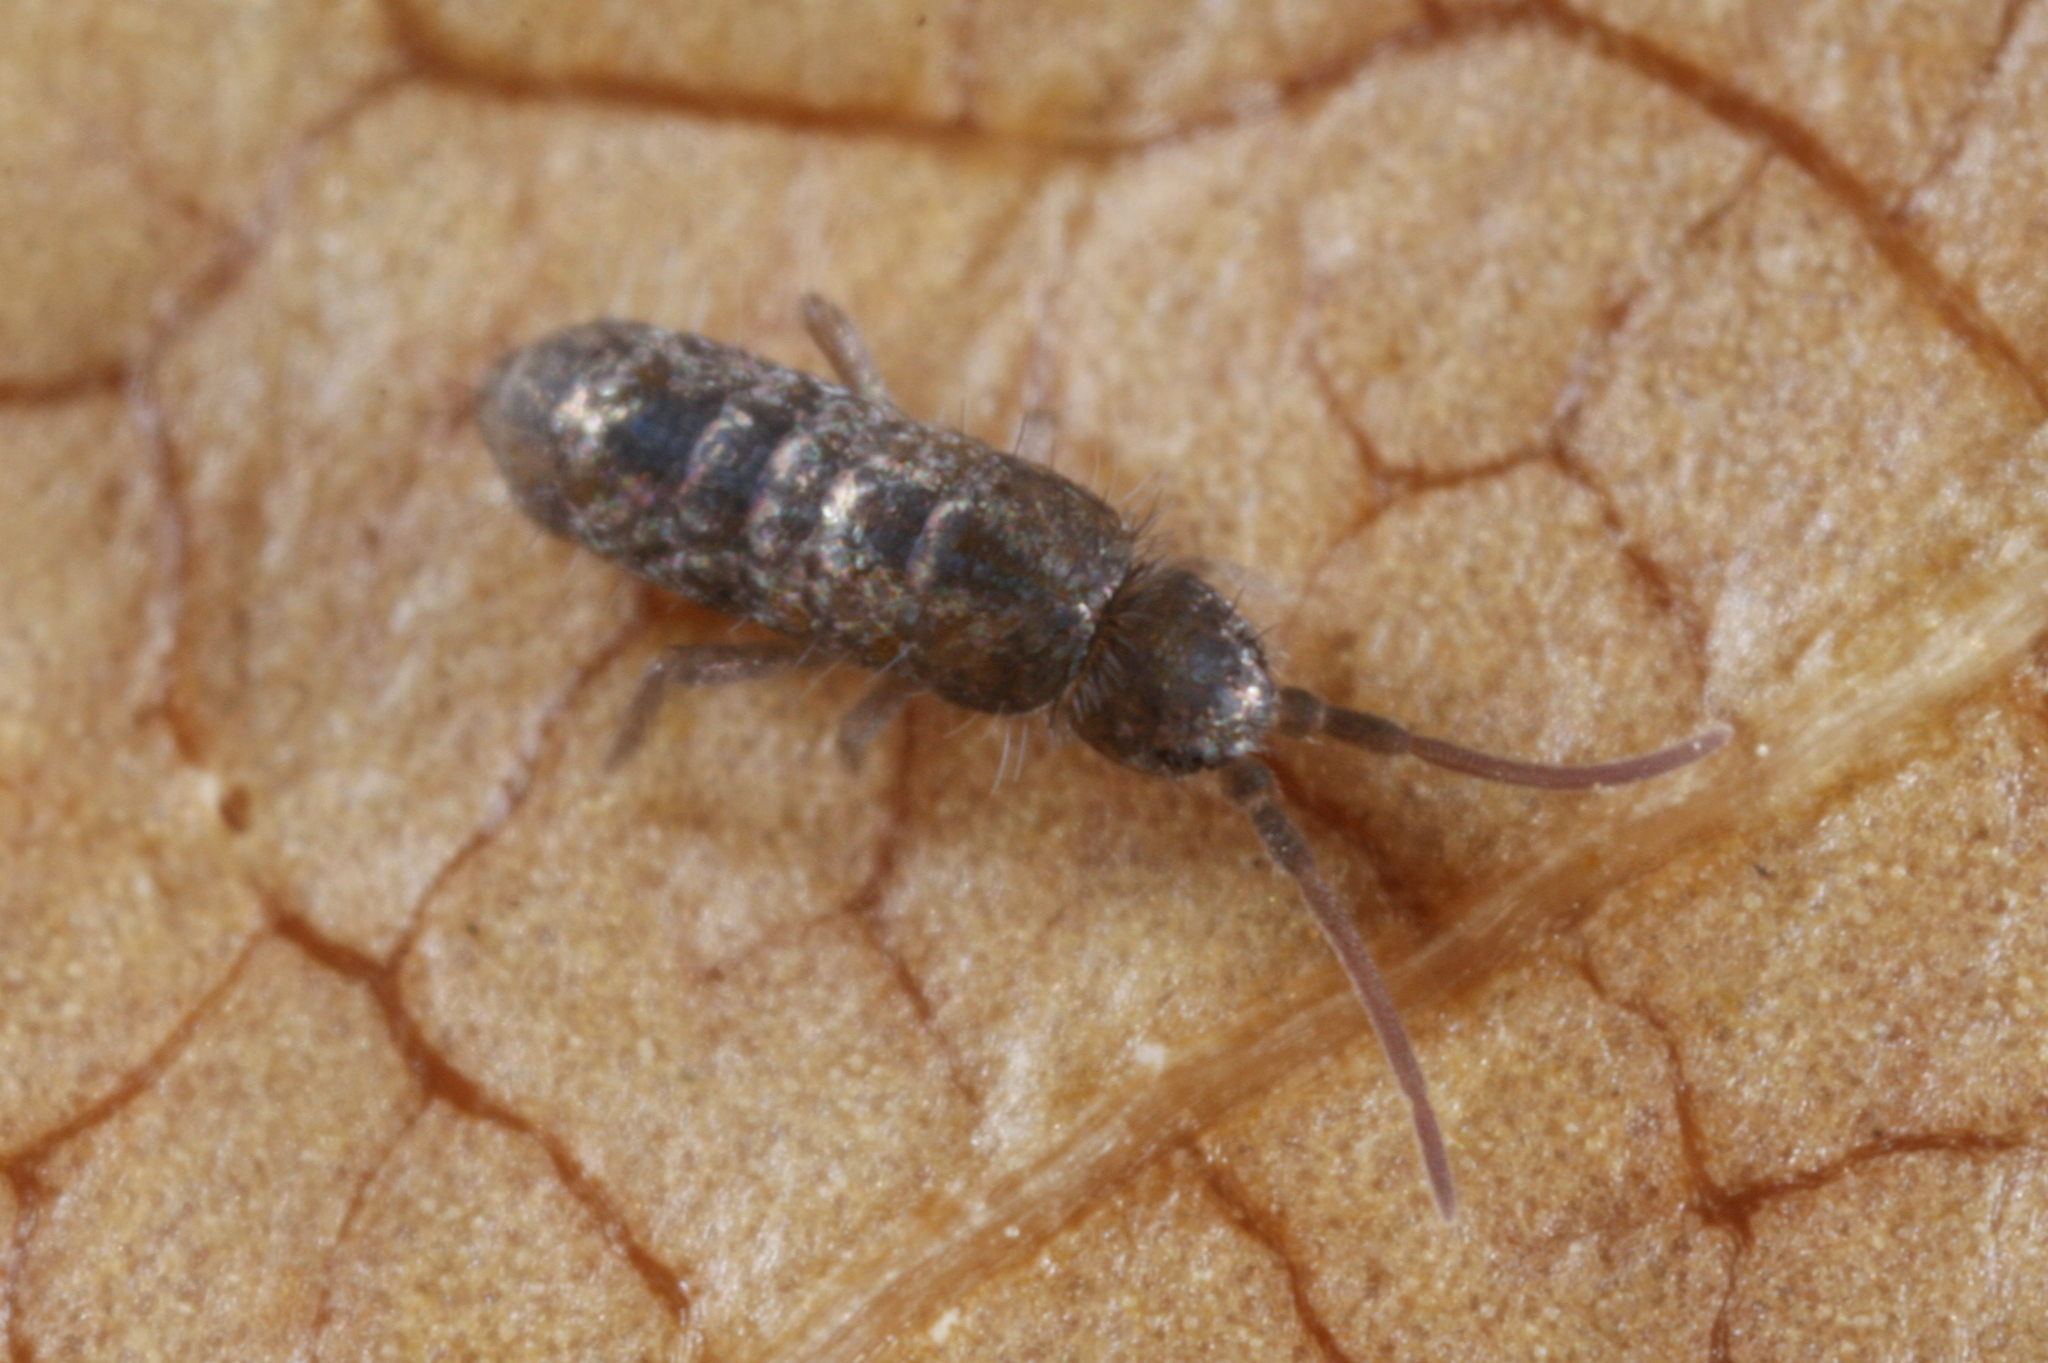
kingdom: Animalia
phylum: Arthropoda
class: Collembola
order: Entomobryomorpha
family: Tomoceridae
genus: Tomocerus
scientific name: Tomocerus minor
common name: Springtail
